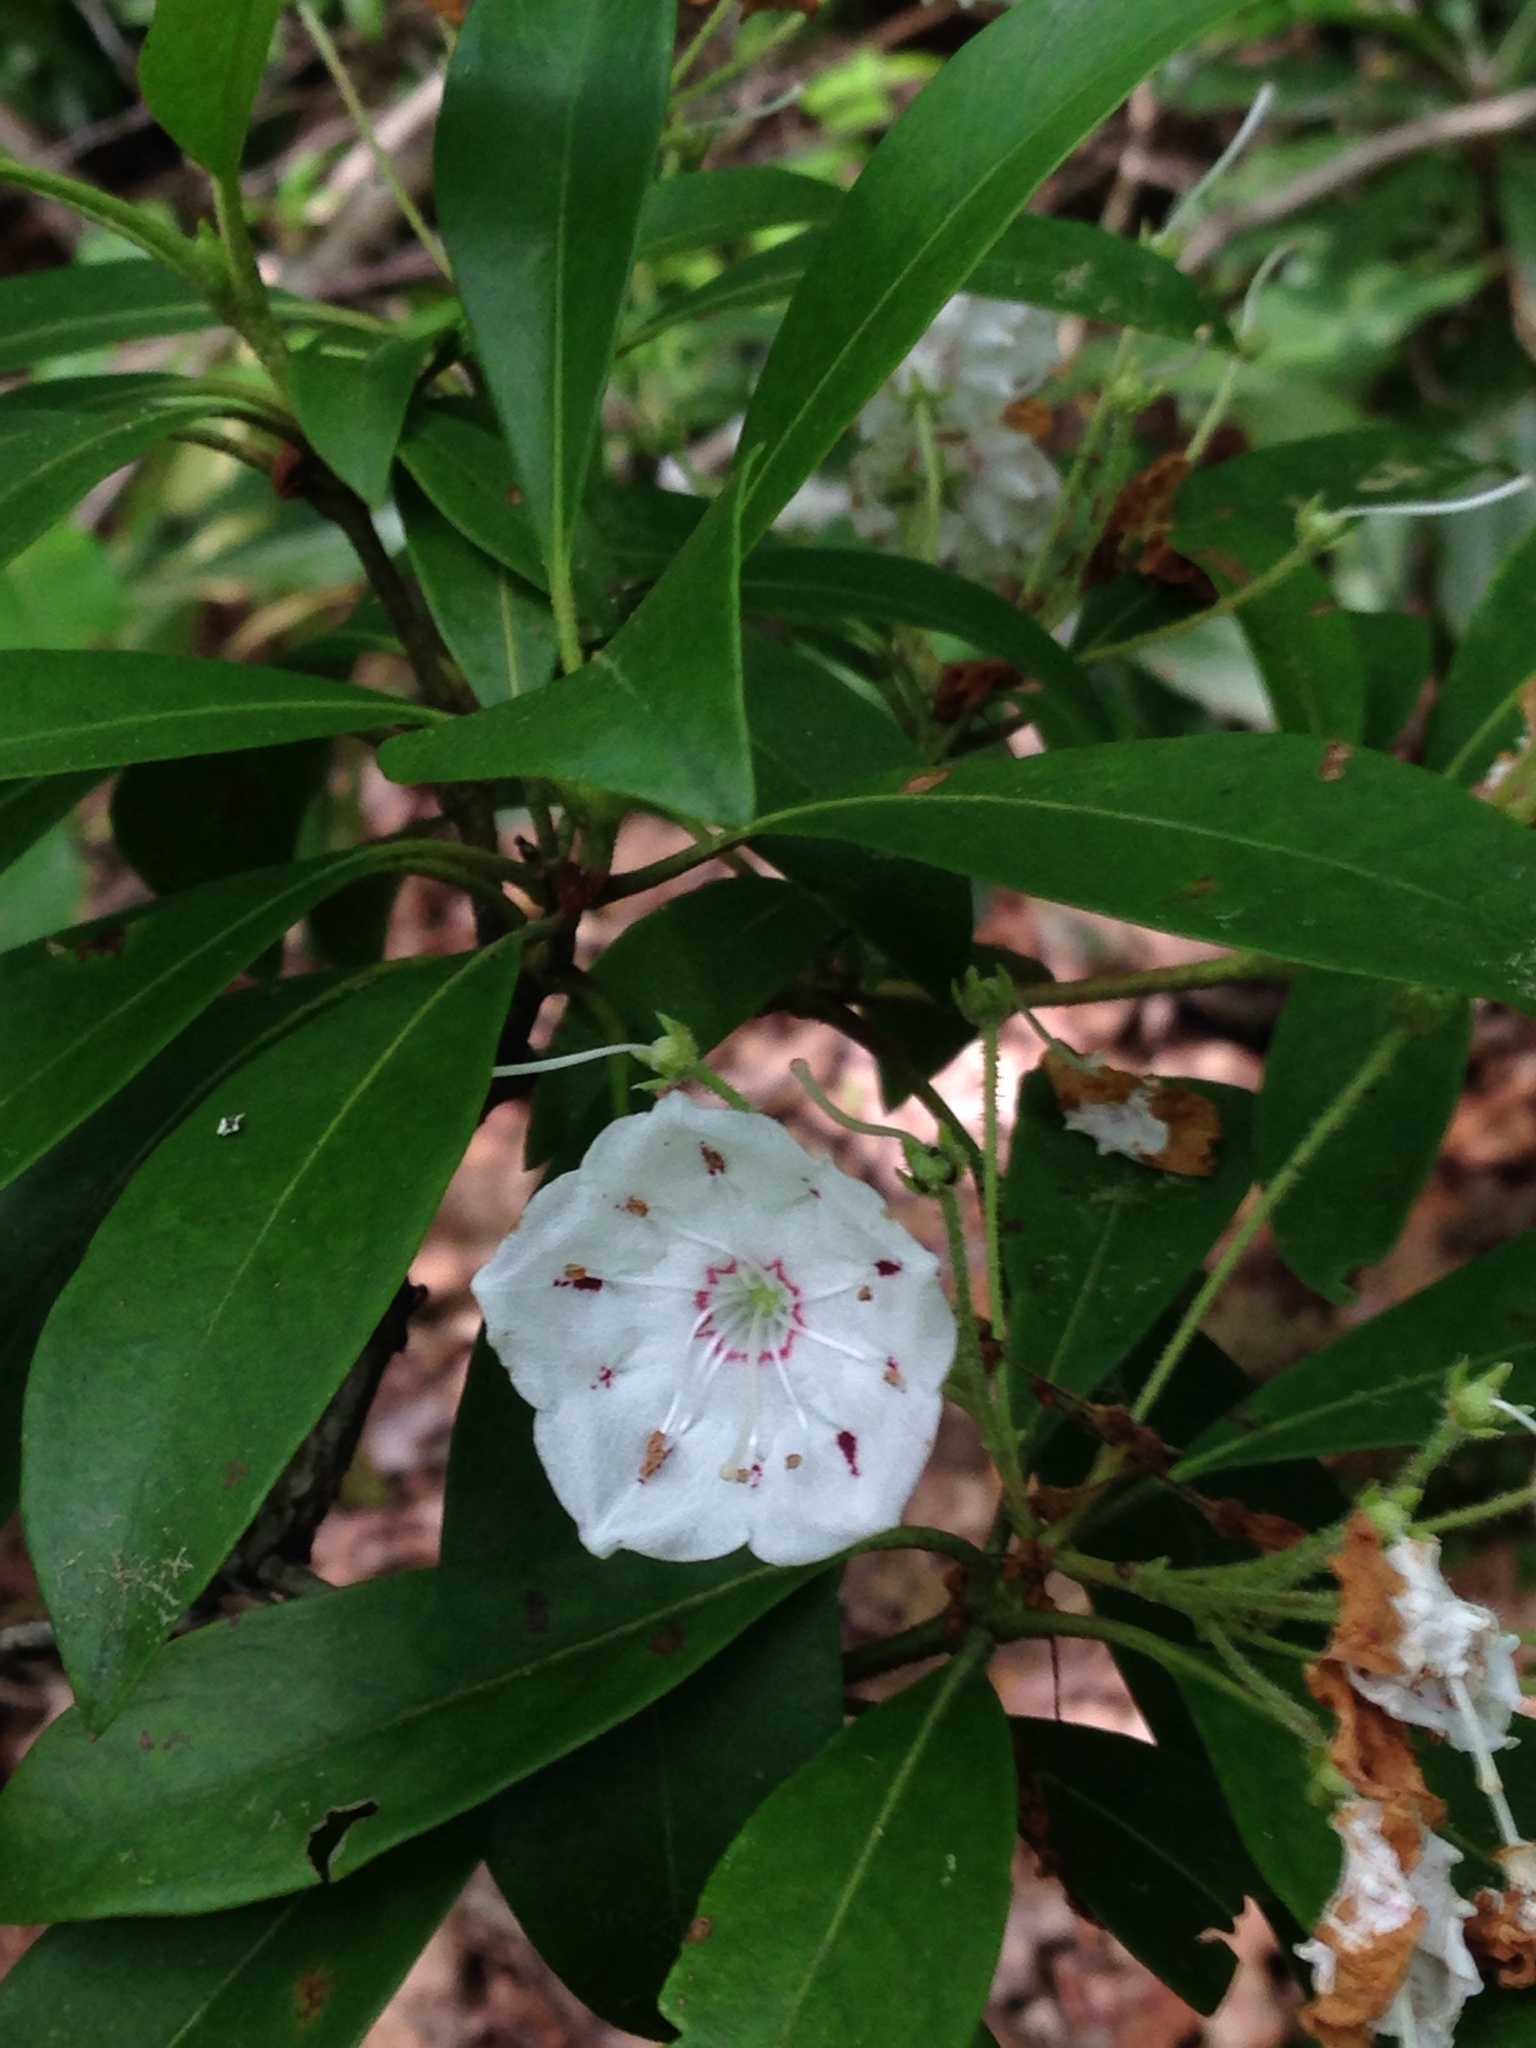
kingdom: Plantae
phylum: Tracheophyta
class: Magnoliopsida
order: Ericales
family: Ericaceae
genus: Kalmia
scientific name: Kalmia latifolia
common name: Mountain-laurel
